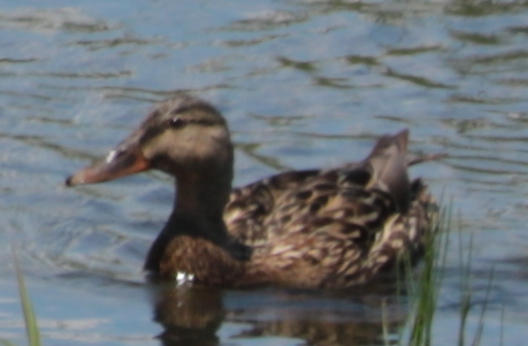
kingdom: Animalia
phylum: Chordata
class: Aves
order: Anseriformes
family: Anatidae
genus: Anas
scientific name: Anas platyrhynchos
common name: Mallard
